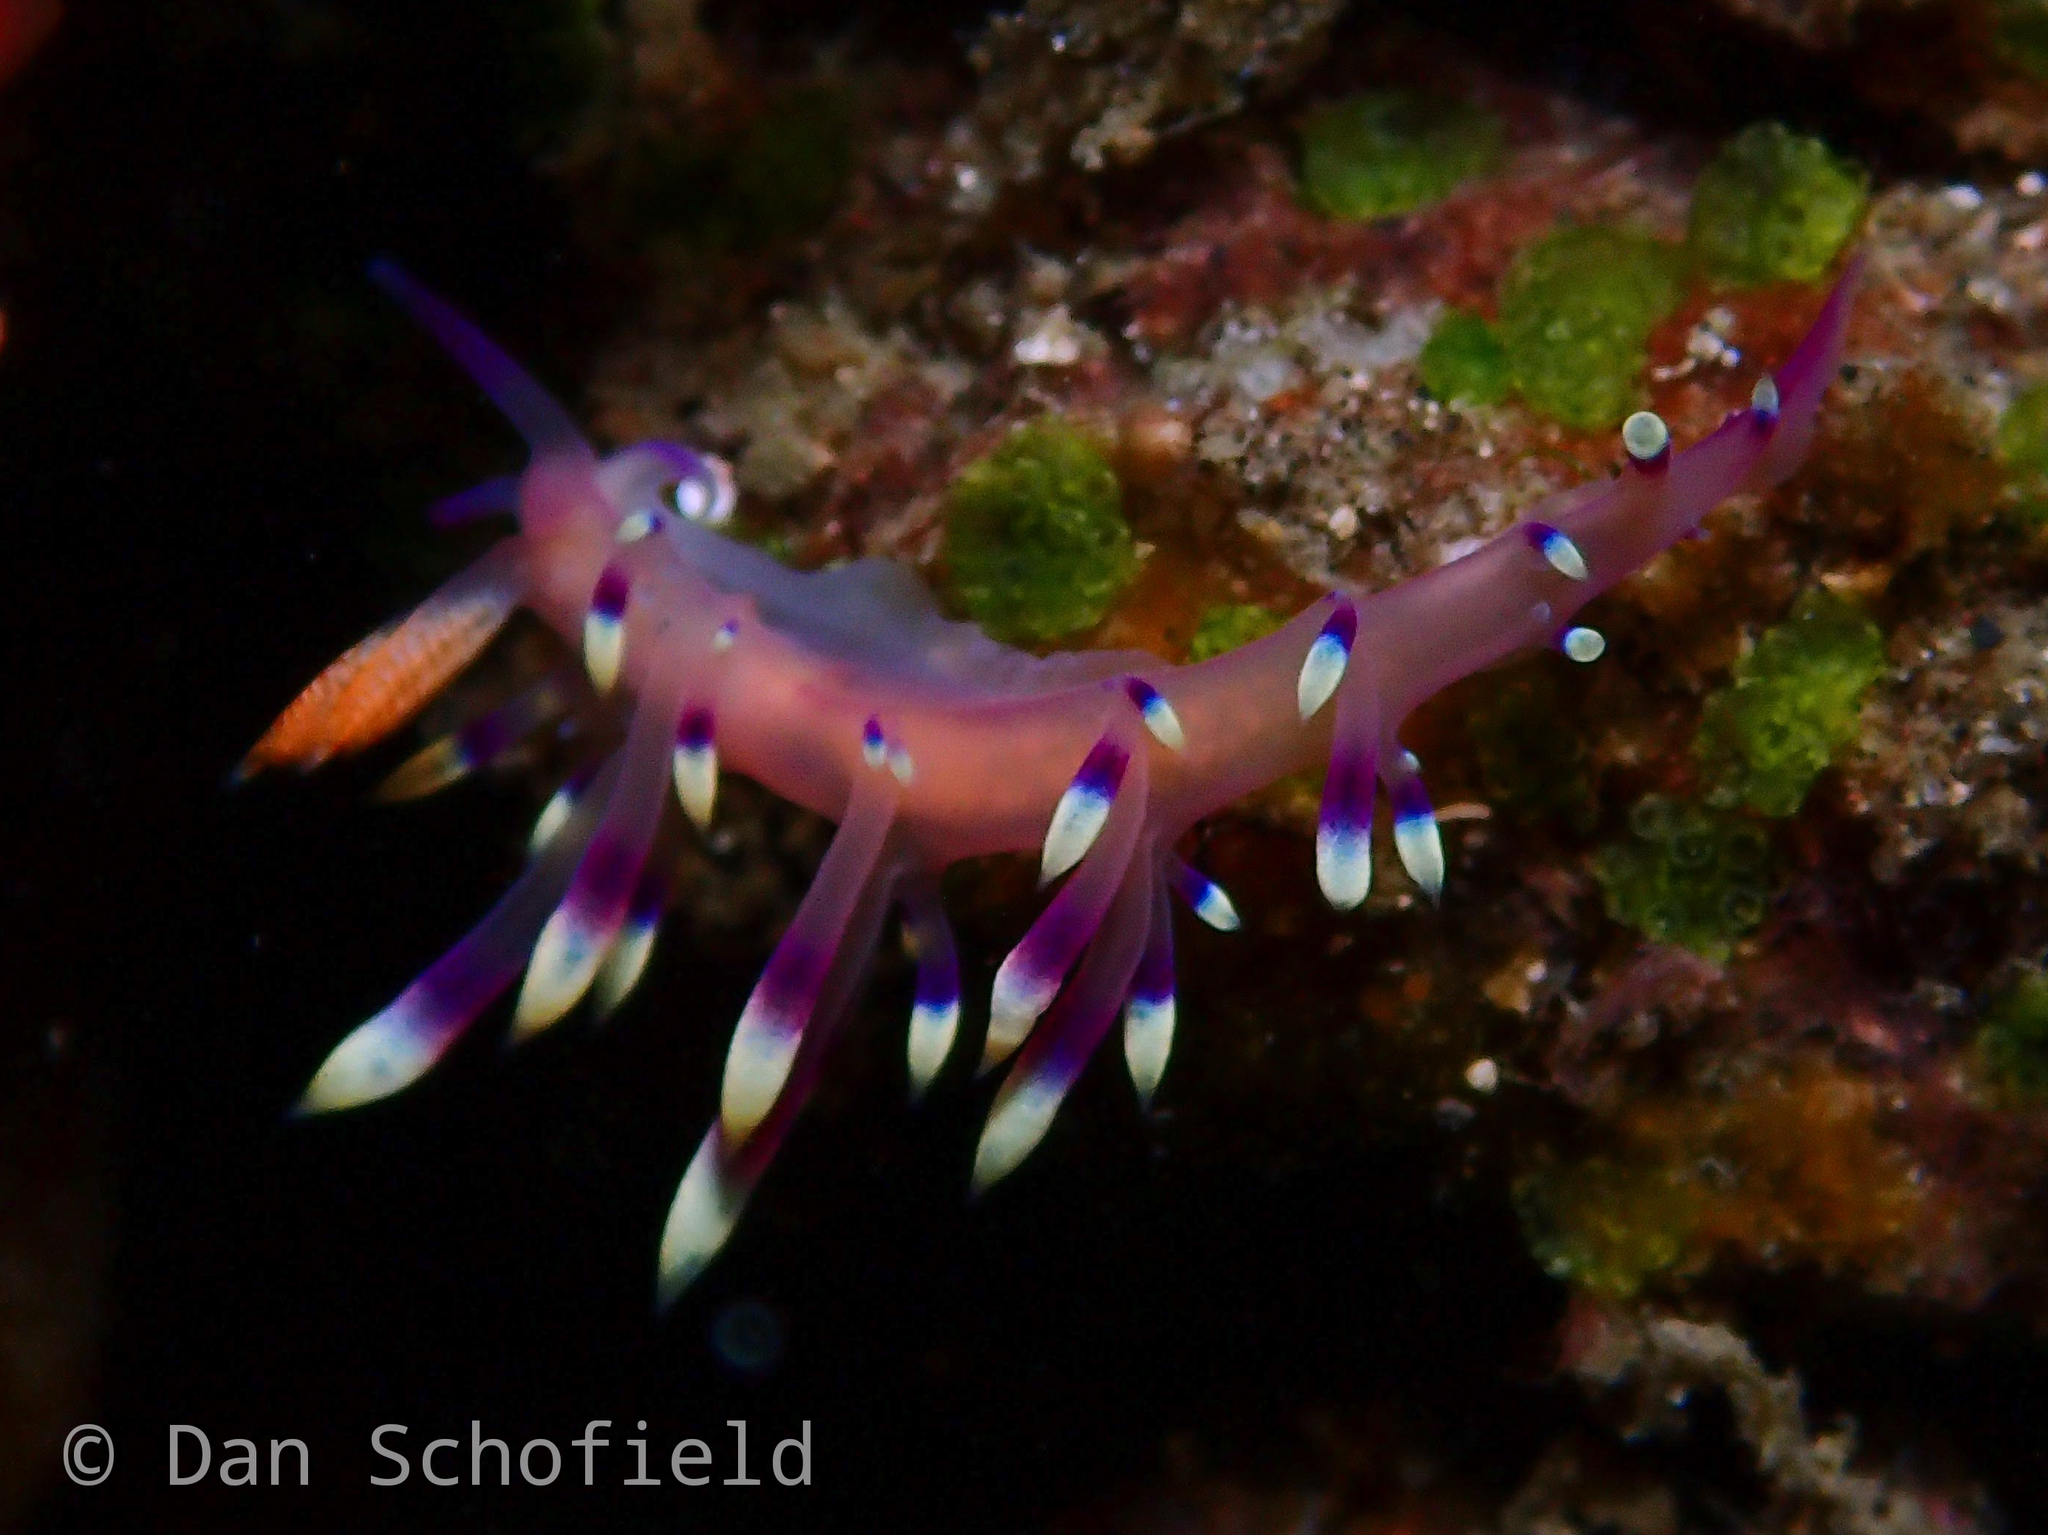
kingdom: Animalia
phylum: Mollusca
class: Gastropoda
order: Nudibranchia
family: Flabellinidae
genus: Coryphellina
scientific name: Coryphellina exoptata
